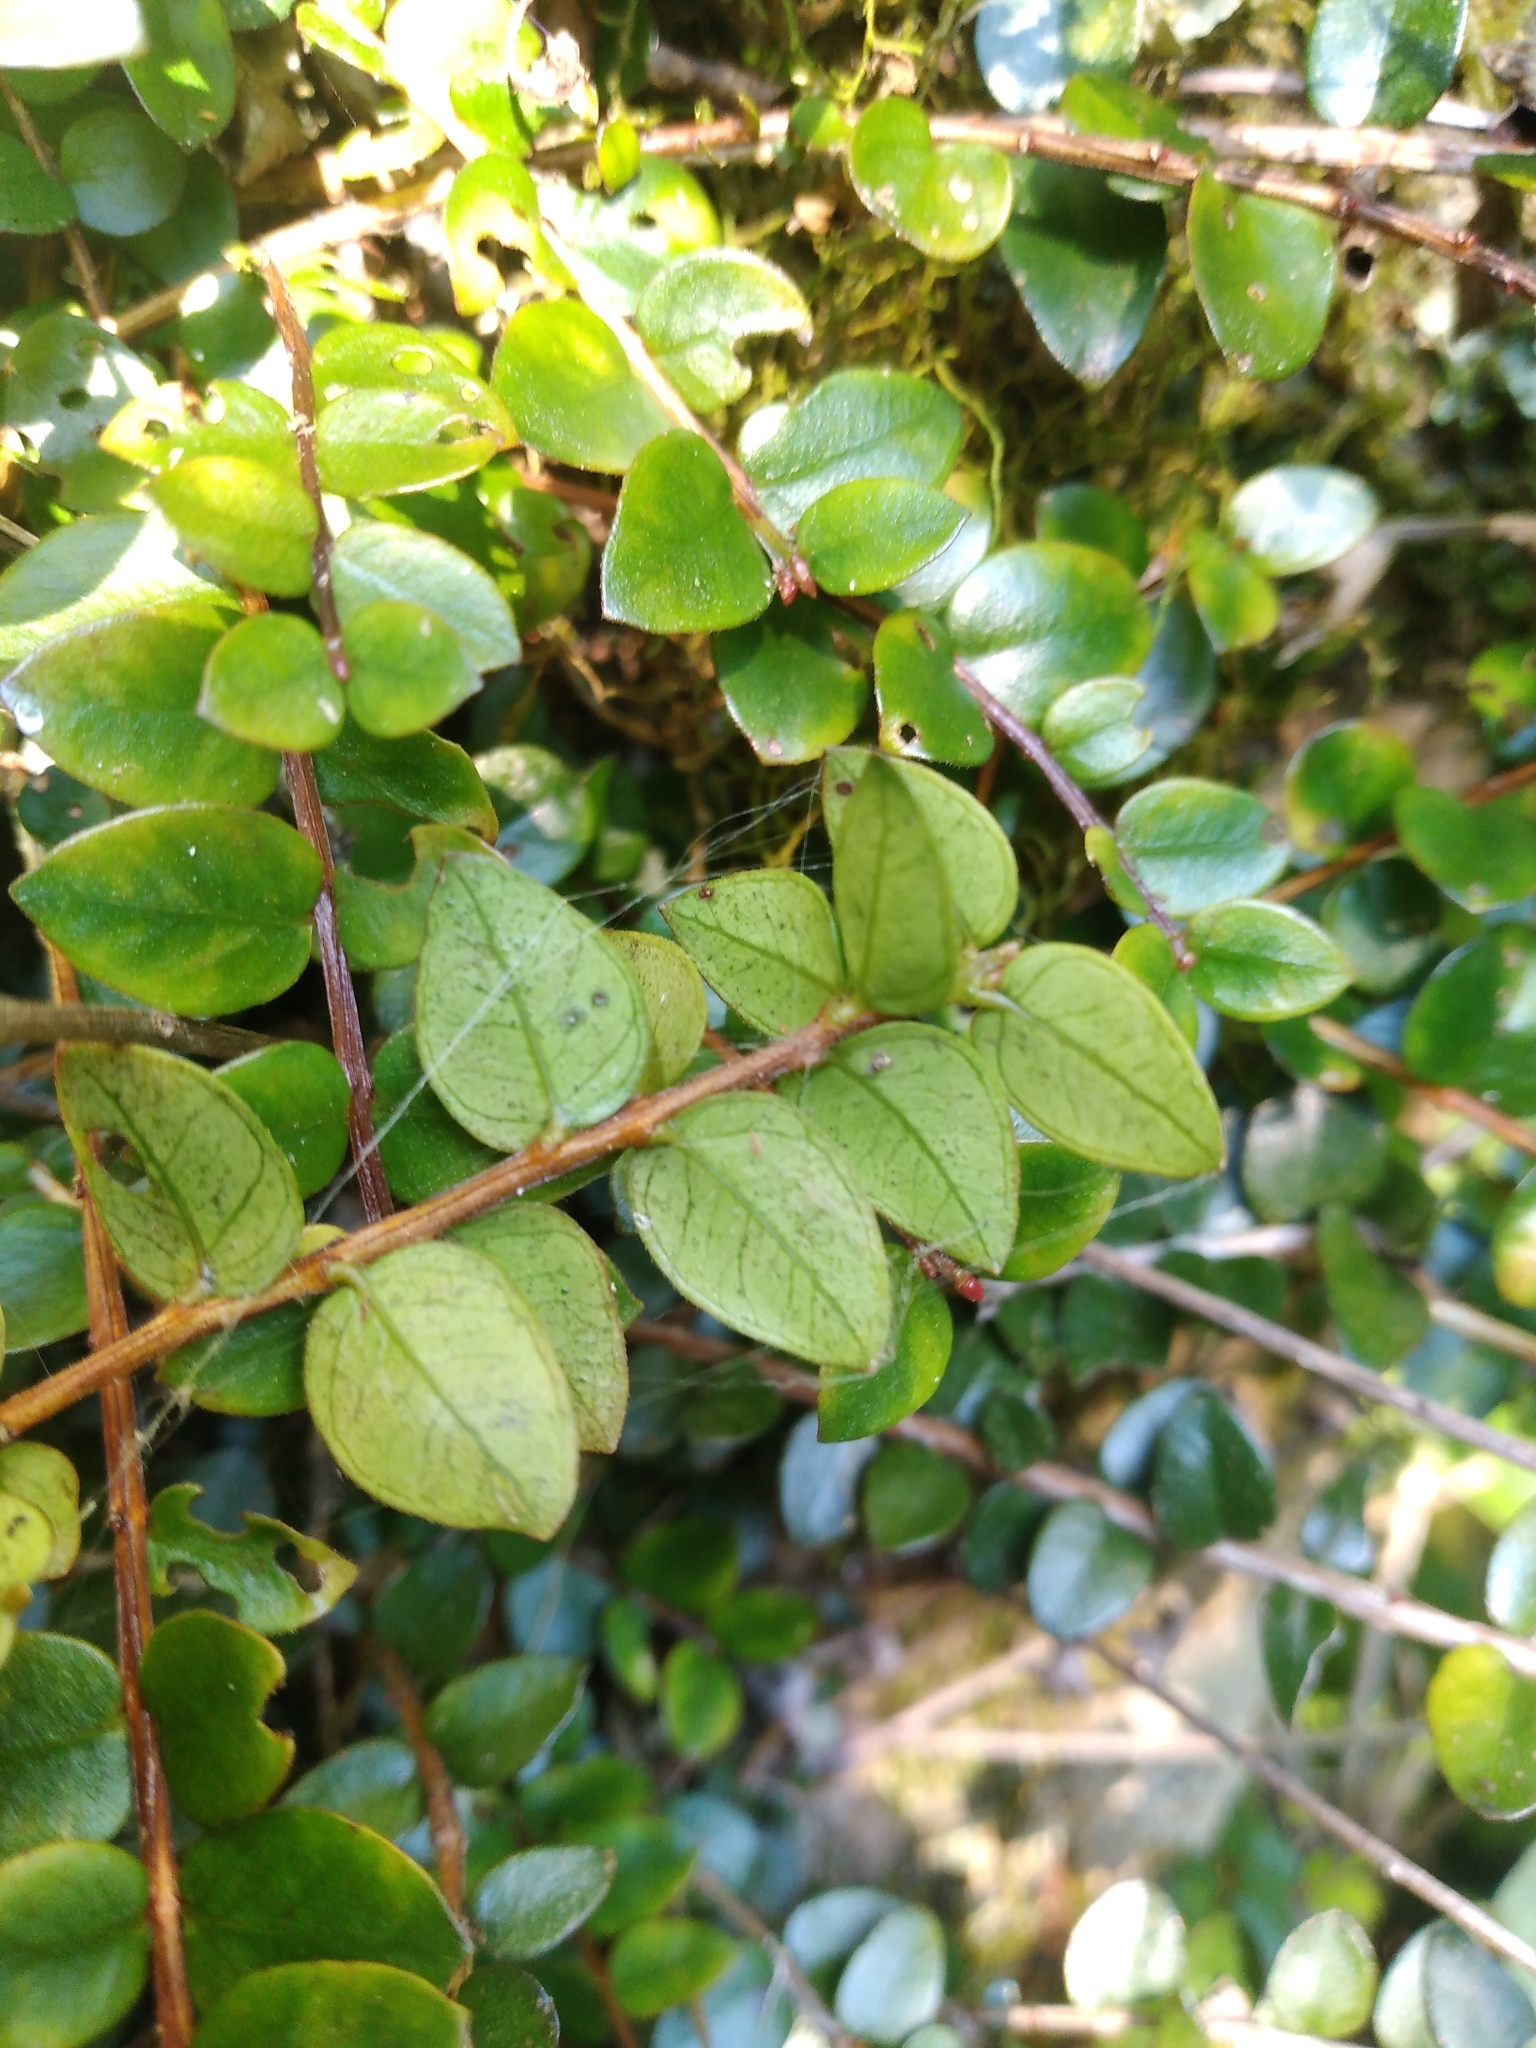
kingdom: Plantae
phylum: Tracheophyta
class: Magnoliopsida
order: Myrtales
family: Myrtaceae
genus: Metrosideros
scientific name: Metrosideros diffusa
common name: Small ratavine
